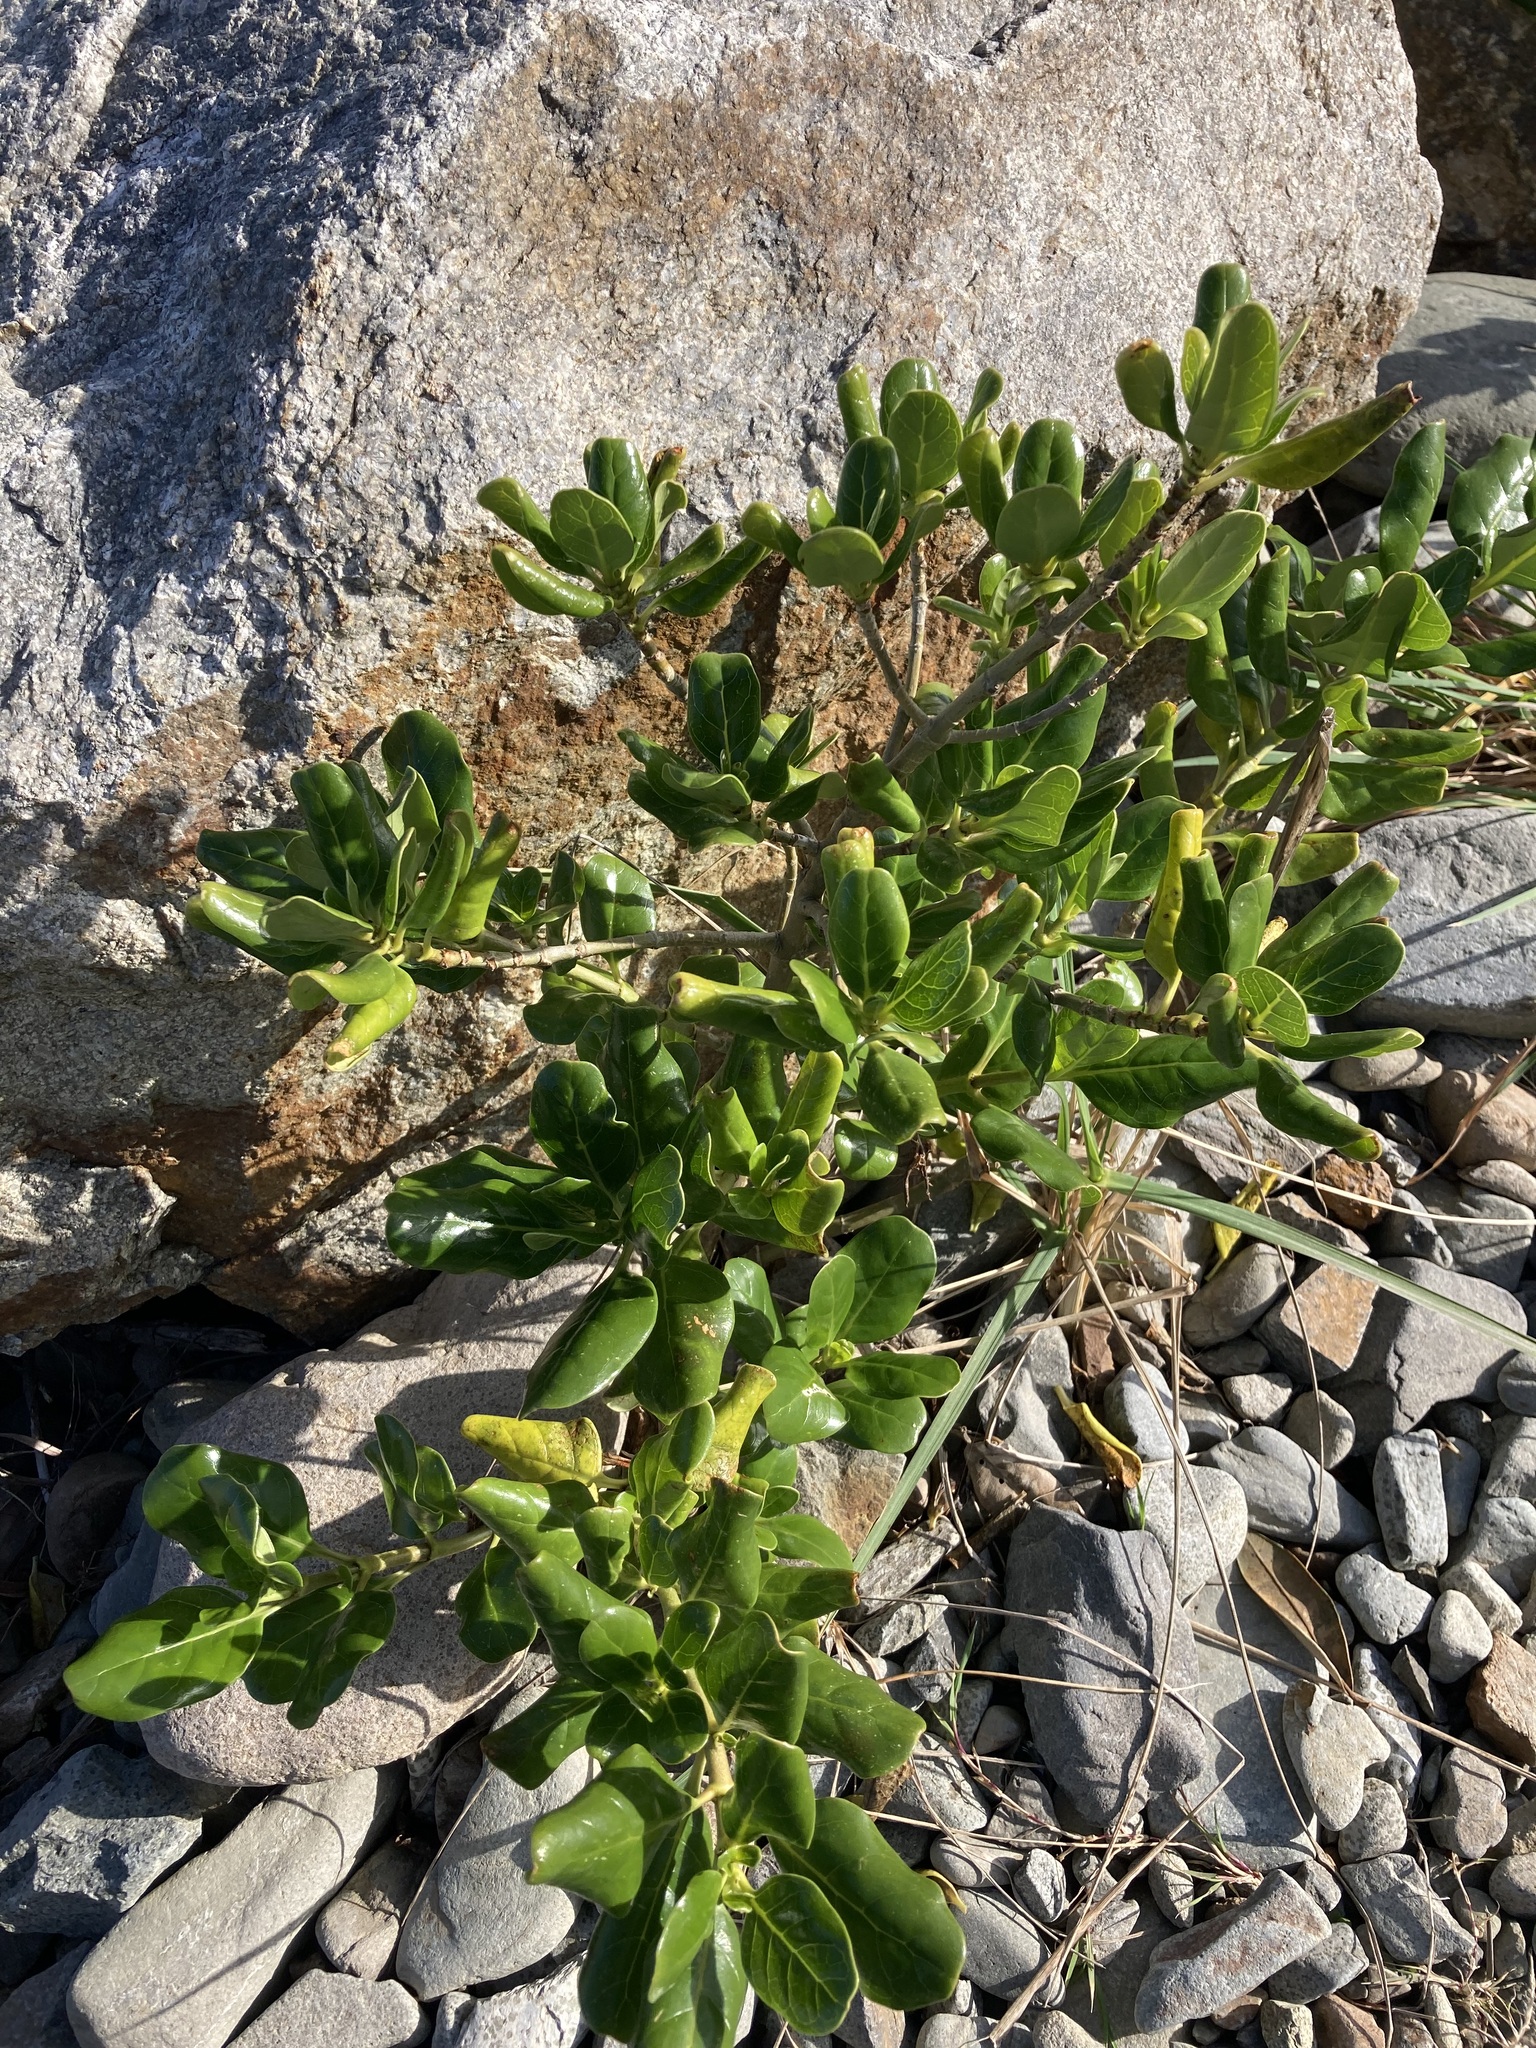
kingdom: Plantae
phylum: Tracheophyta
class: Magnoliopsida
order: Gentianales
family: Rubiaceae
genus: Coprosma
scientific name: Coprosma repens
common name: Tree bedstraw
